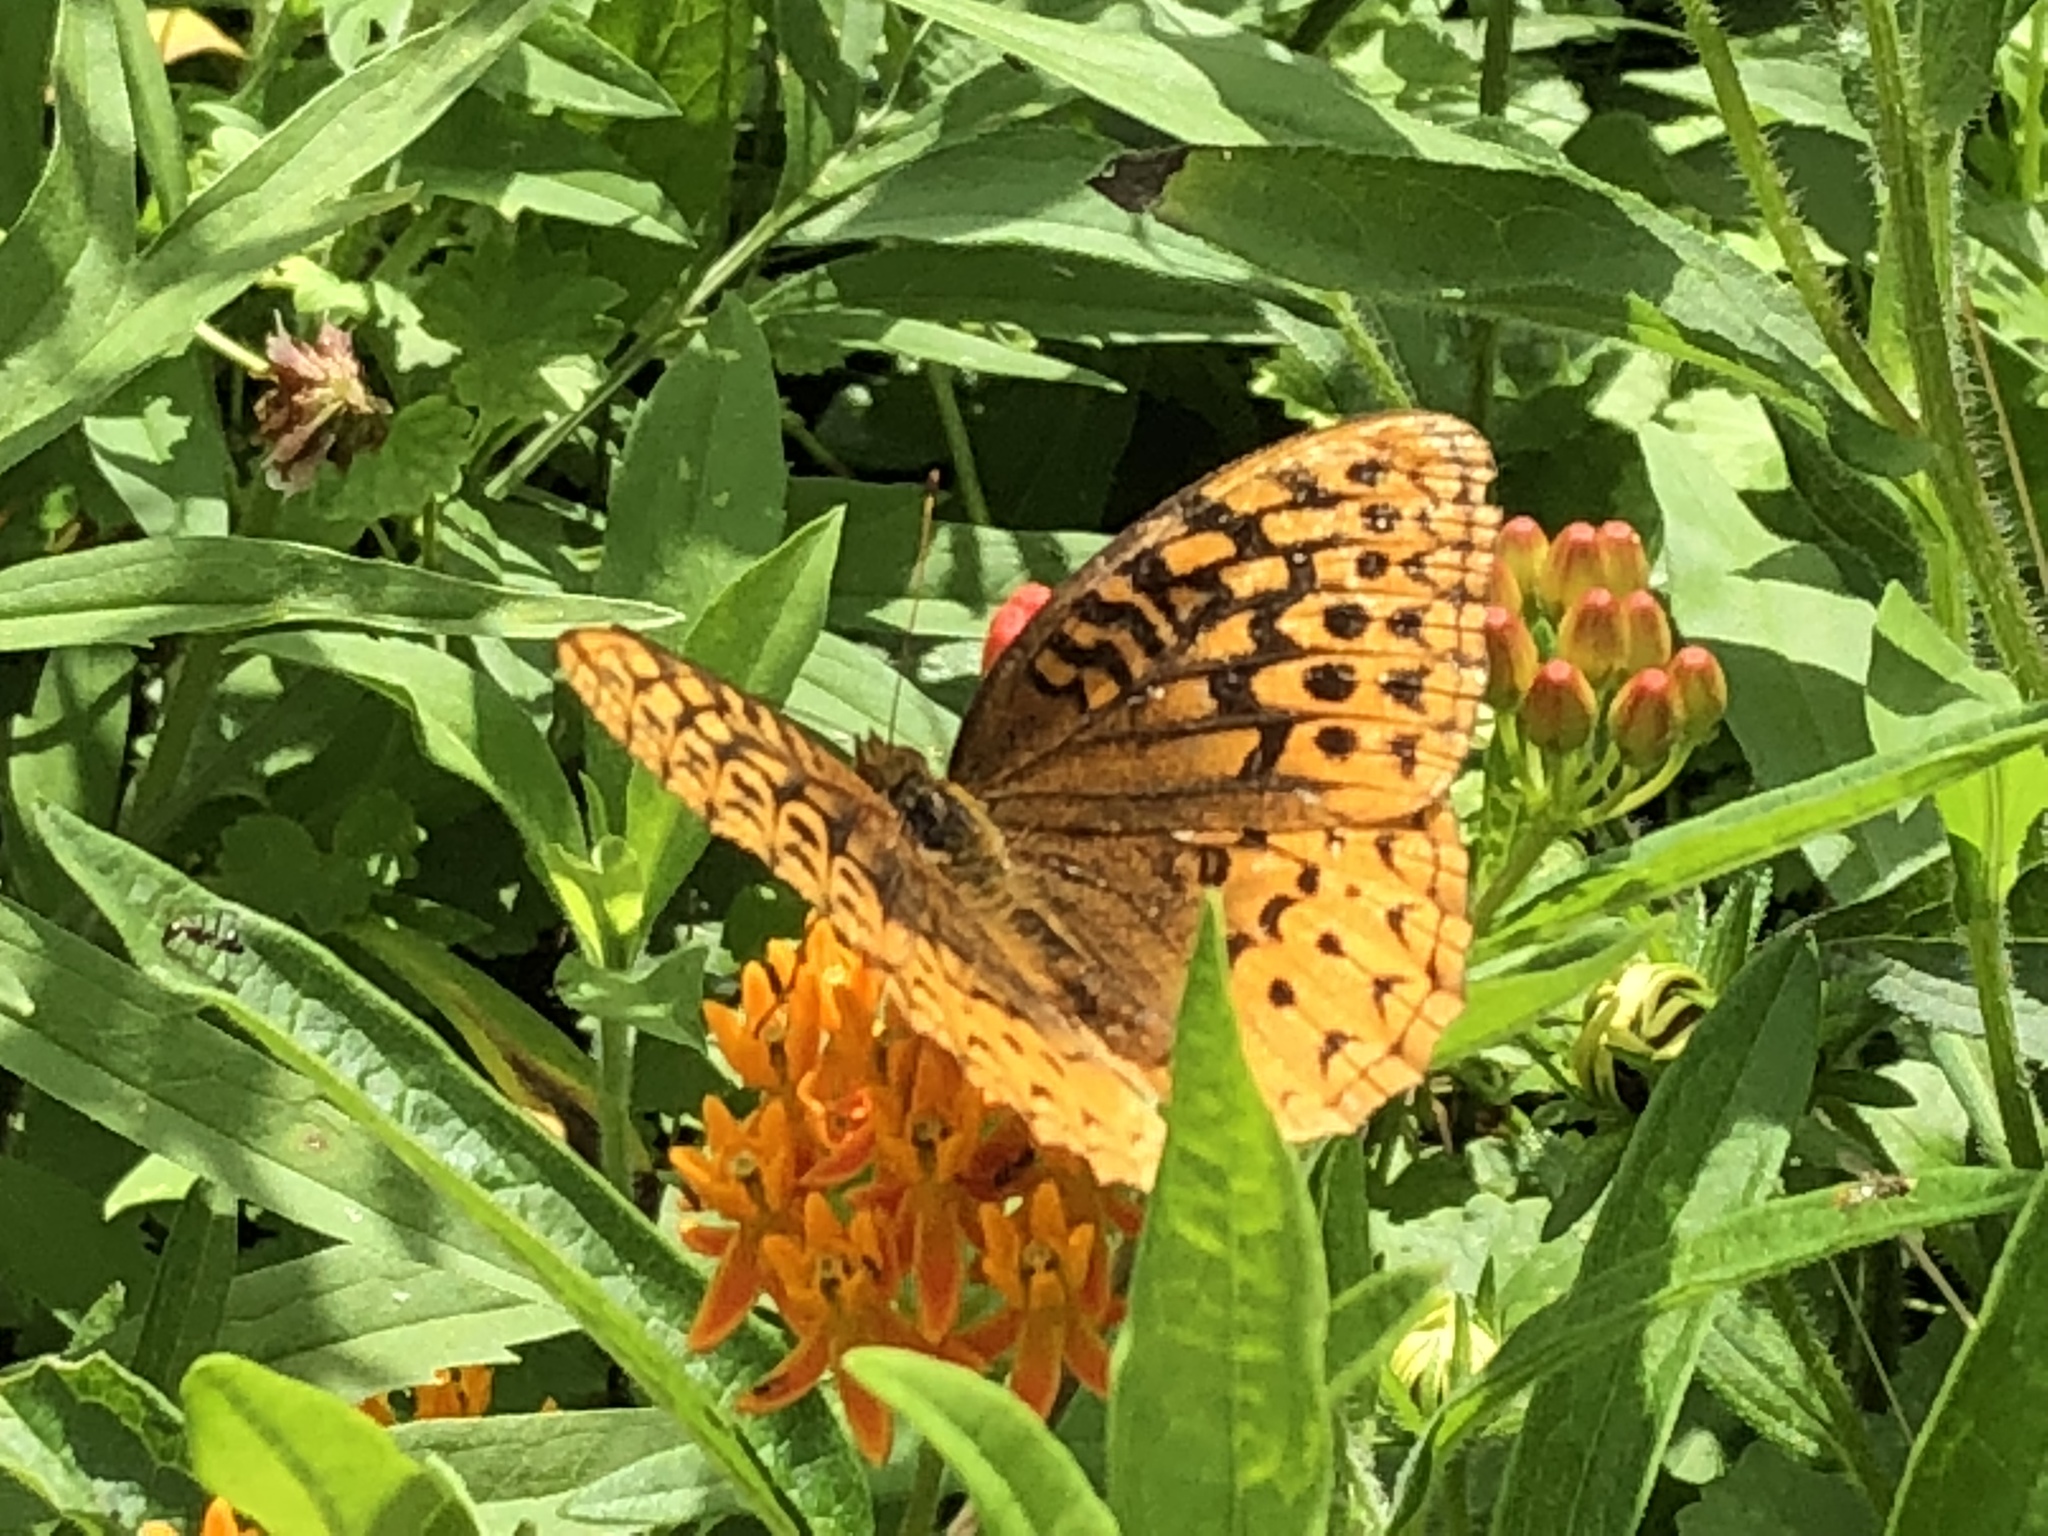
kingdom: Animalia
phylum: Arthropoda
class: Insecta
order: Lepidoptera
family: Nymphalidae
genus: Speyeria
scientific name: Speyeria cybele
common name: Great spangled fritillary
